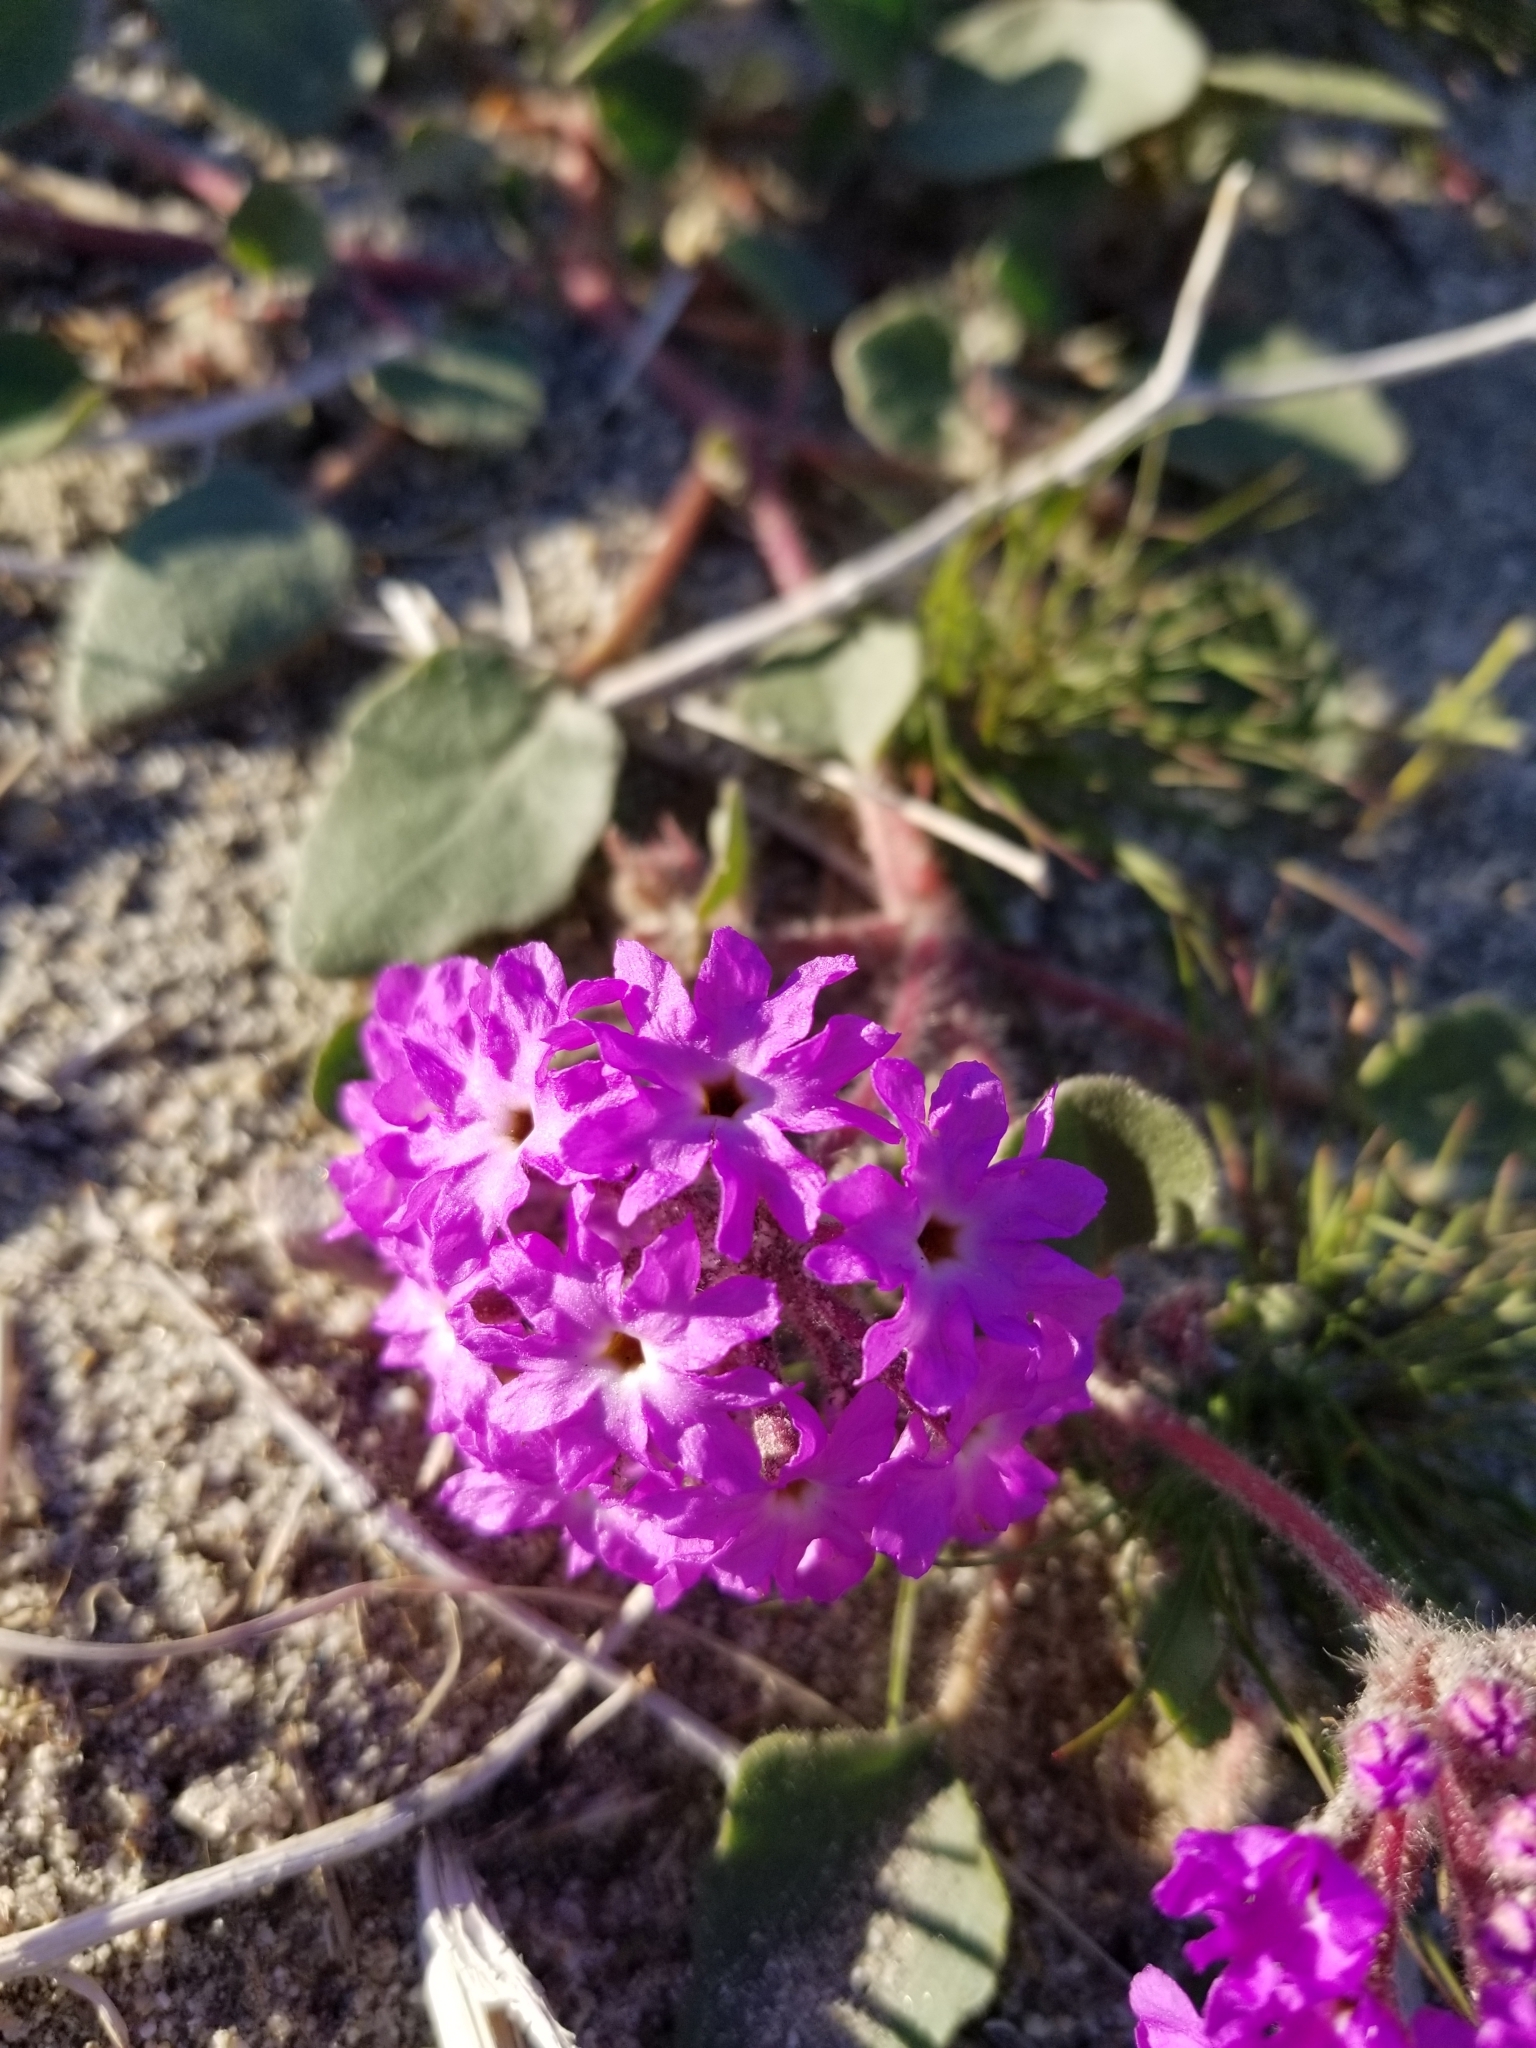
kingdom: Plantae
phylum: Tracheophyta
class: Magnoliopsida
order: Caryophyllales
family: Nyctaginaceae
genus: Abronia
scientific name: Abronia villosa
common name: Desert sand-verbena
